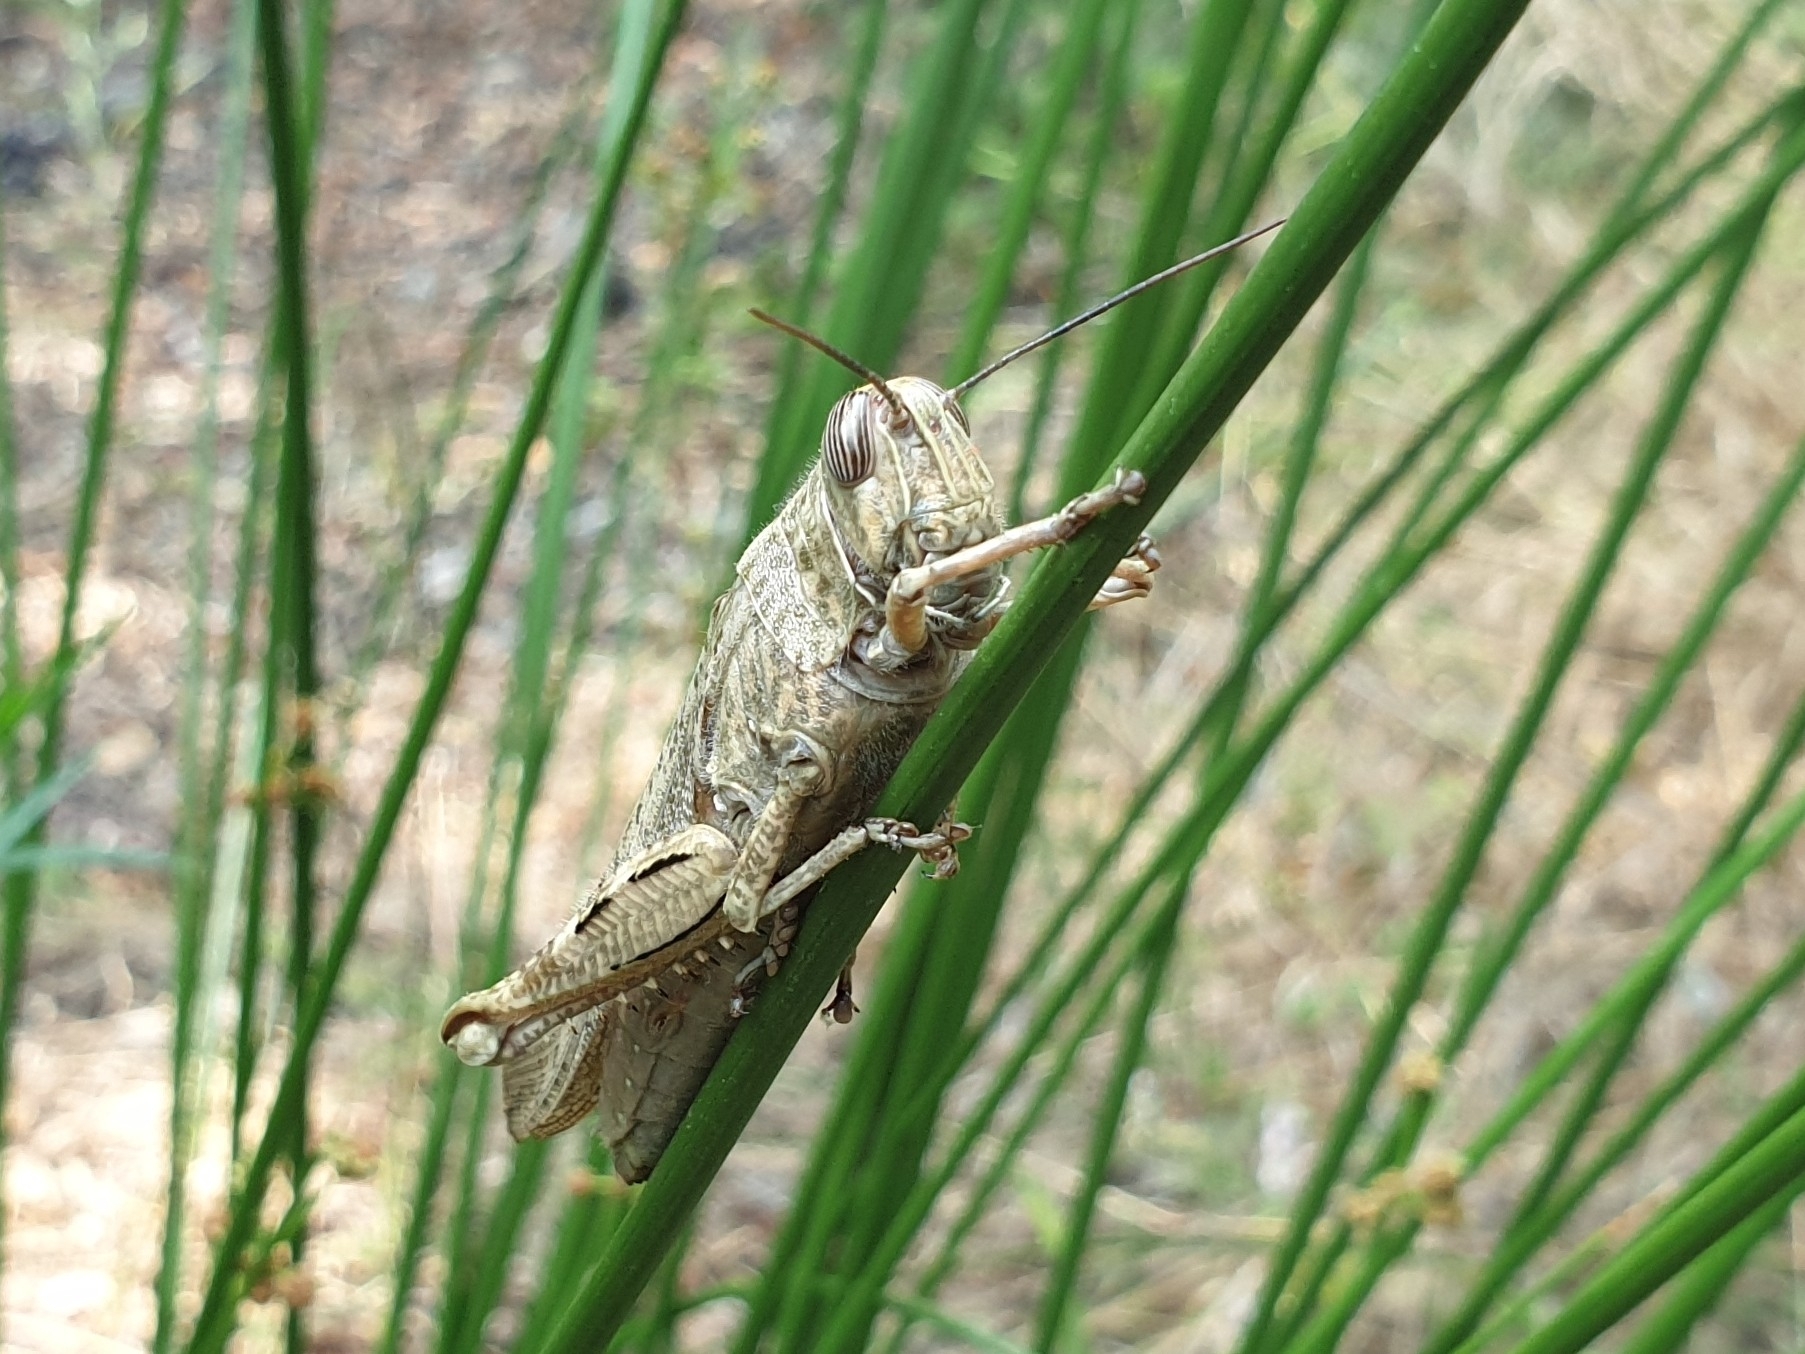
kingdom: Animalia
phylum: Arthropoda
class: Insecta
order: Orthoptera
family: Acrididae
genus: Anacridium
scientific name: Anacridium aegyptium
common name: Egyptian grasshopper
